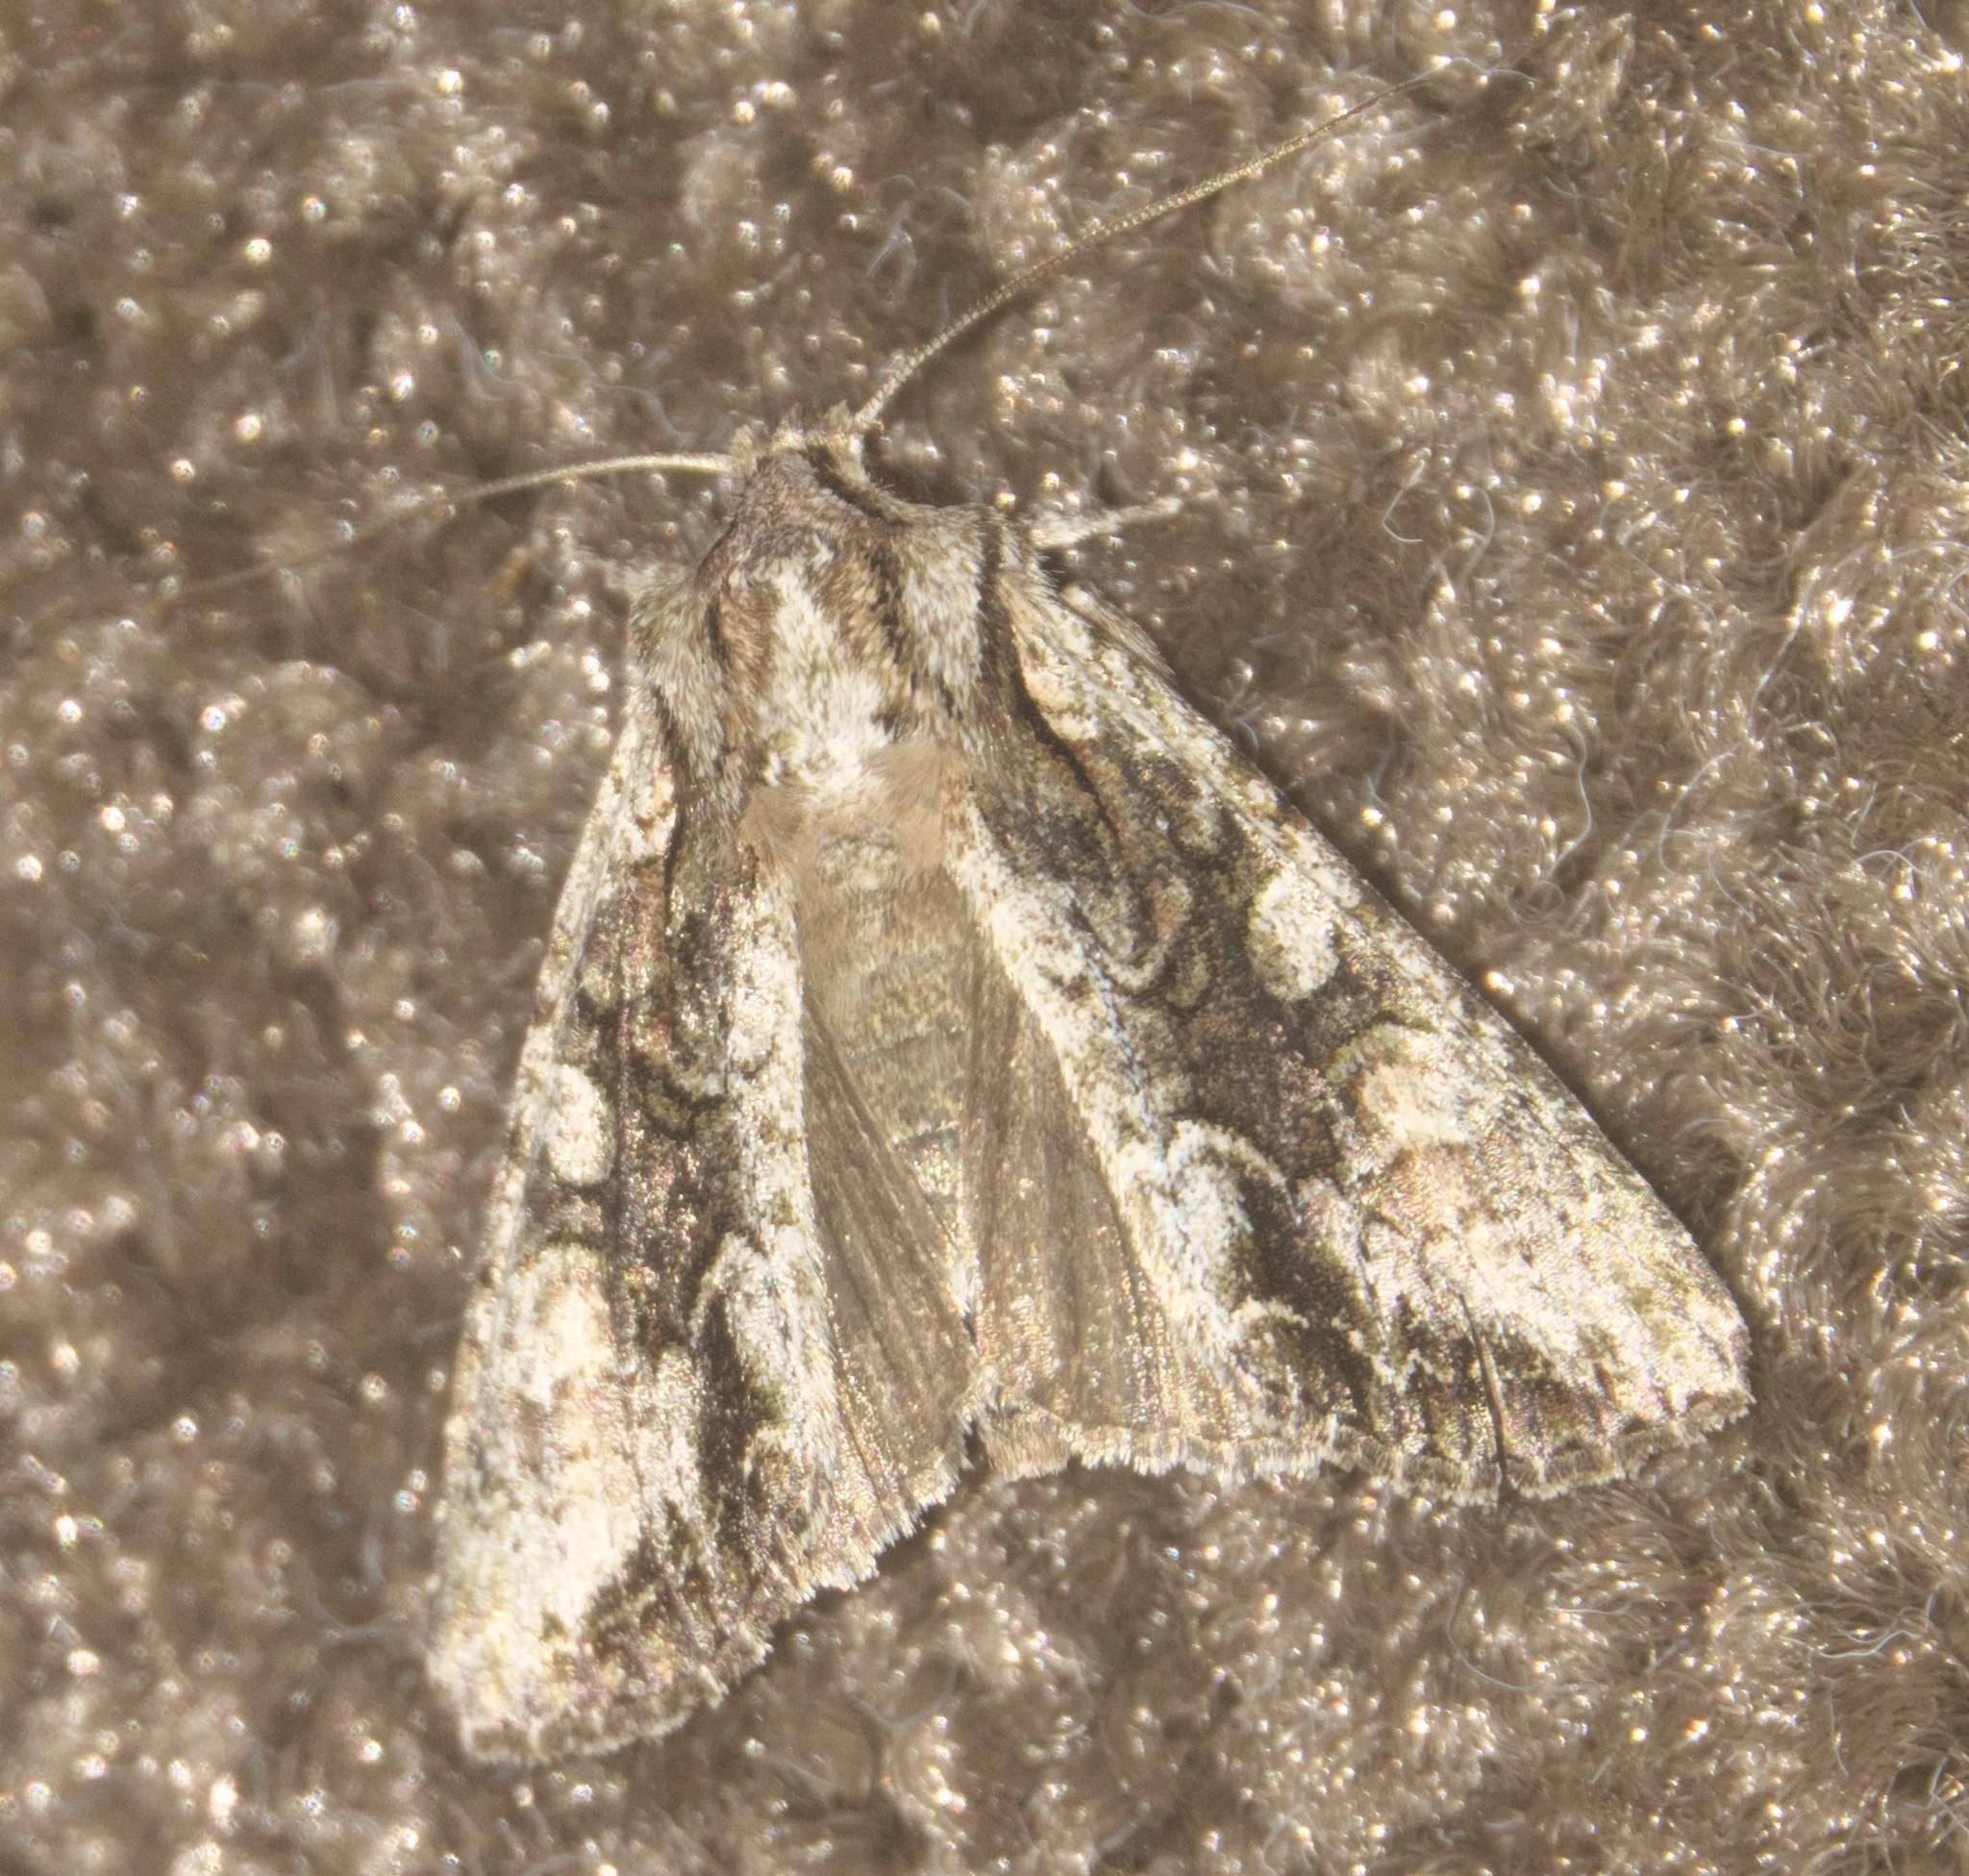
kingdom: Animalia
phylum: Arthropoda
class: Insecta
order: Lepidoptera
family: Noctuidae
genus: Ichneutica
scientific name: Ichneutica mutans
